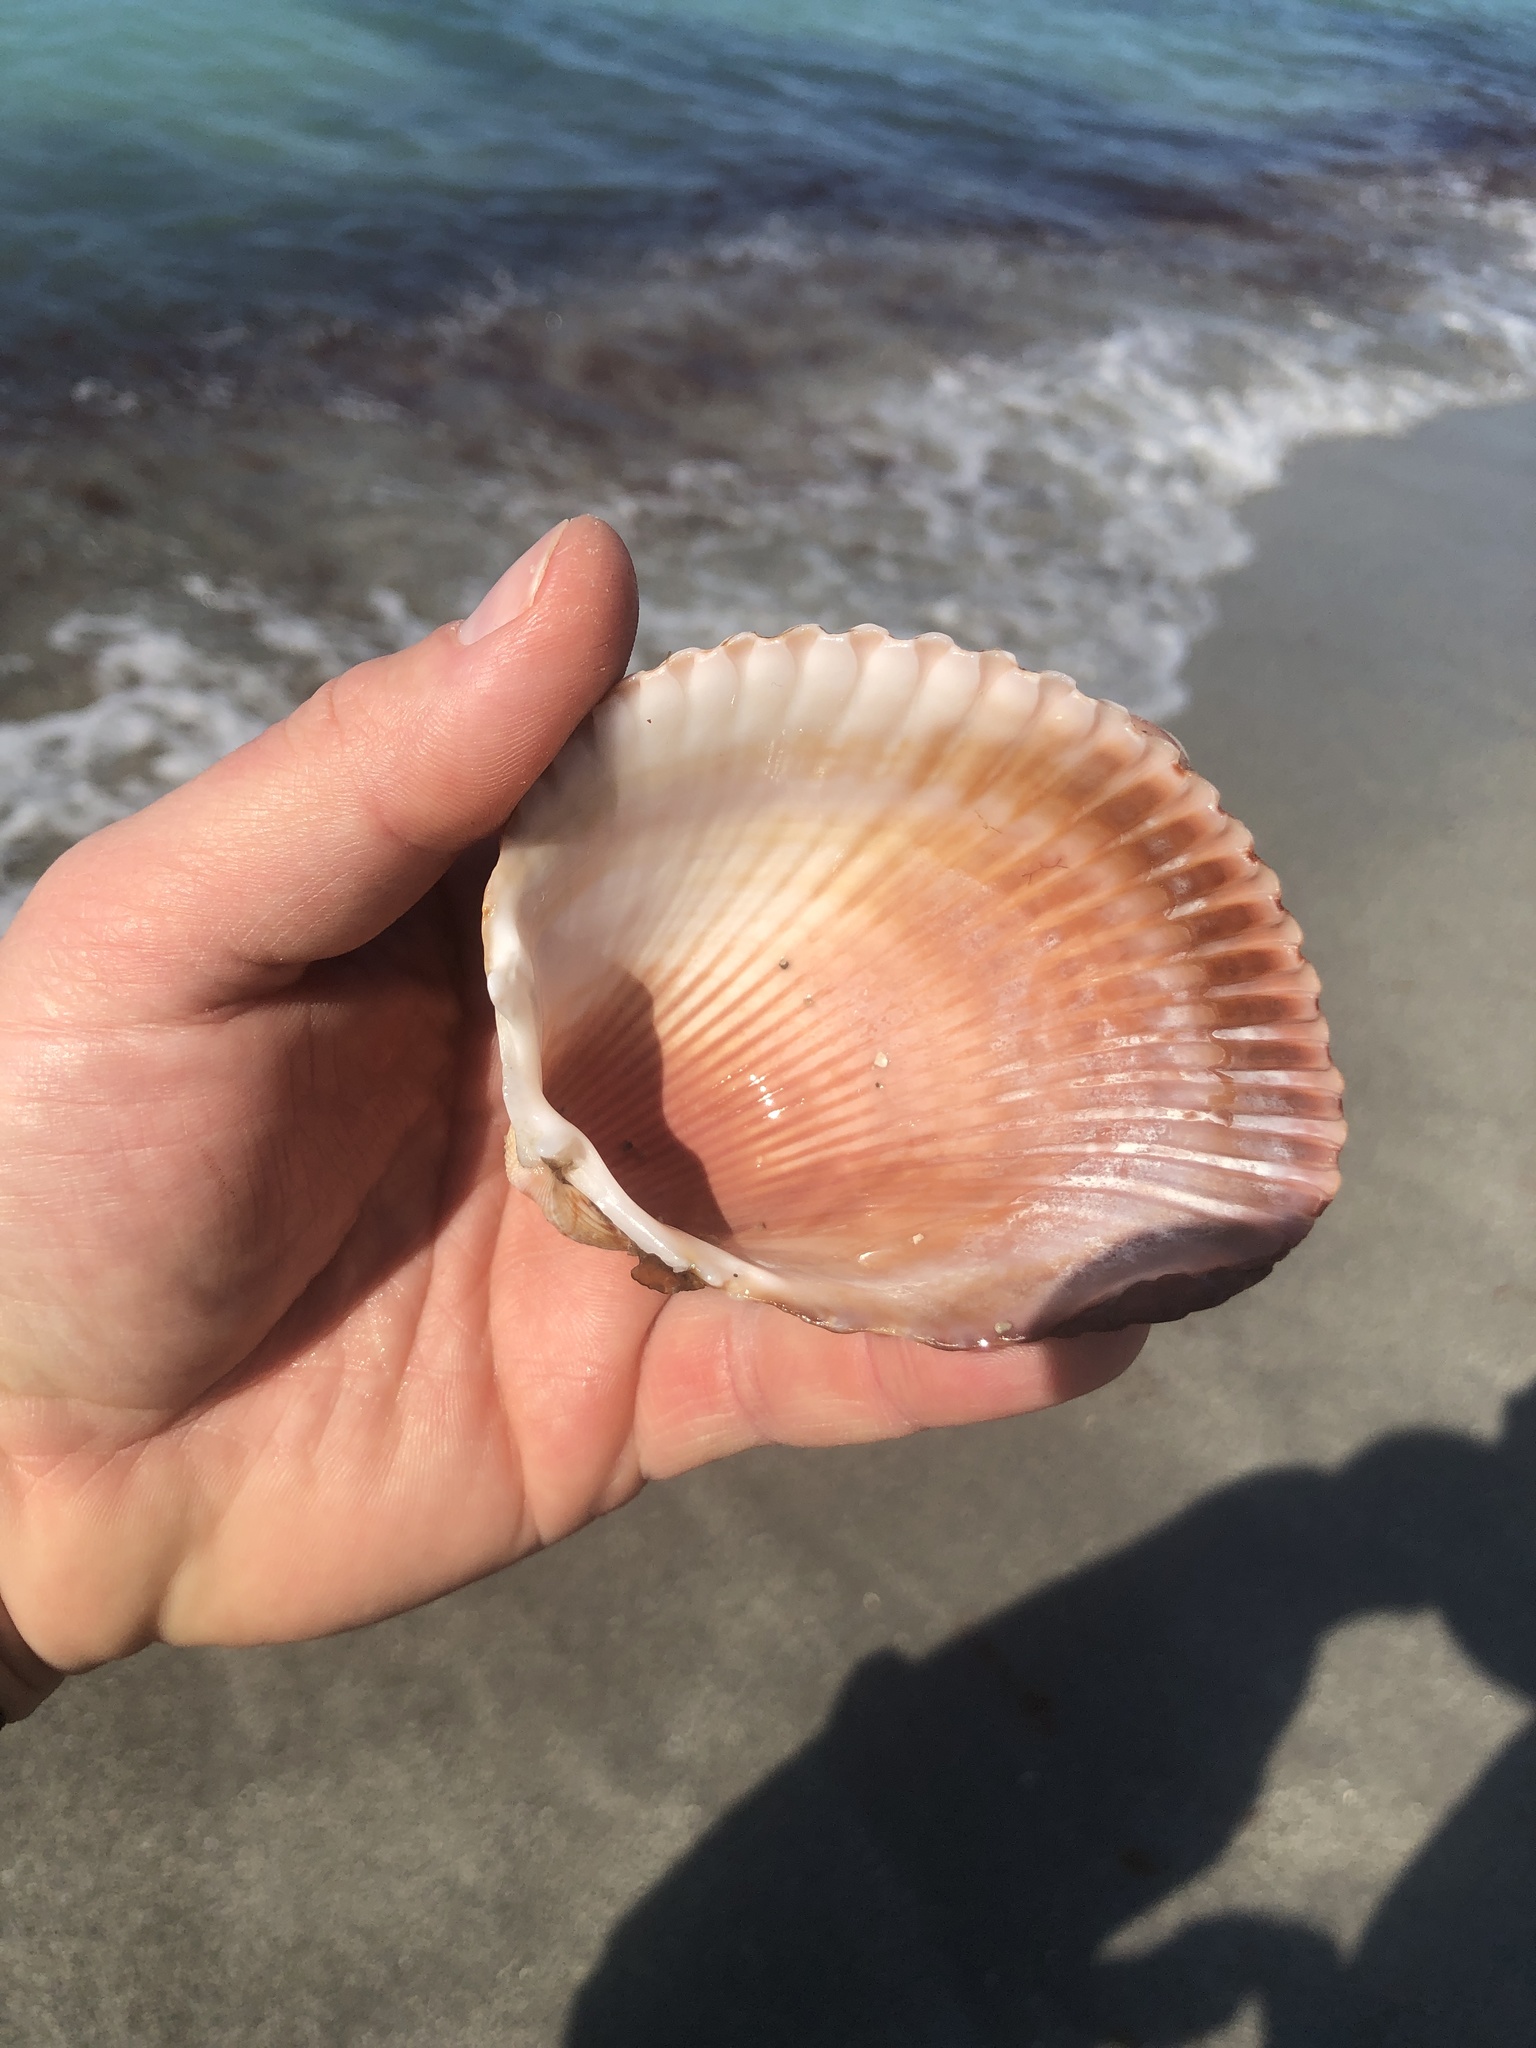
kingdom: Animalia
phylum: Mollusca
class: Bivalvia
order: Cardiida
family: Cardiidae
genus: Dinocardium
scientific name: Dinocardium robustum
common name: Atlantic giant cockle
